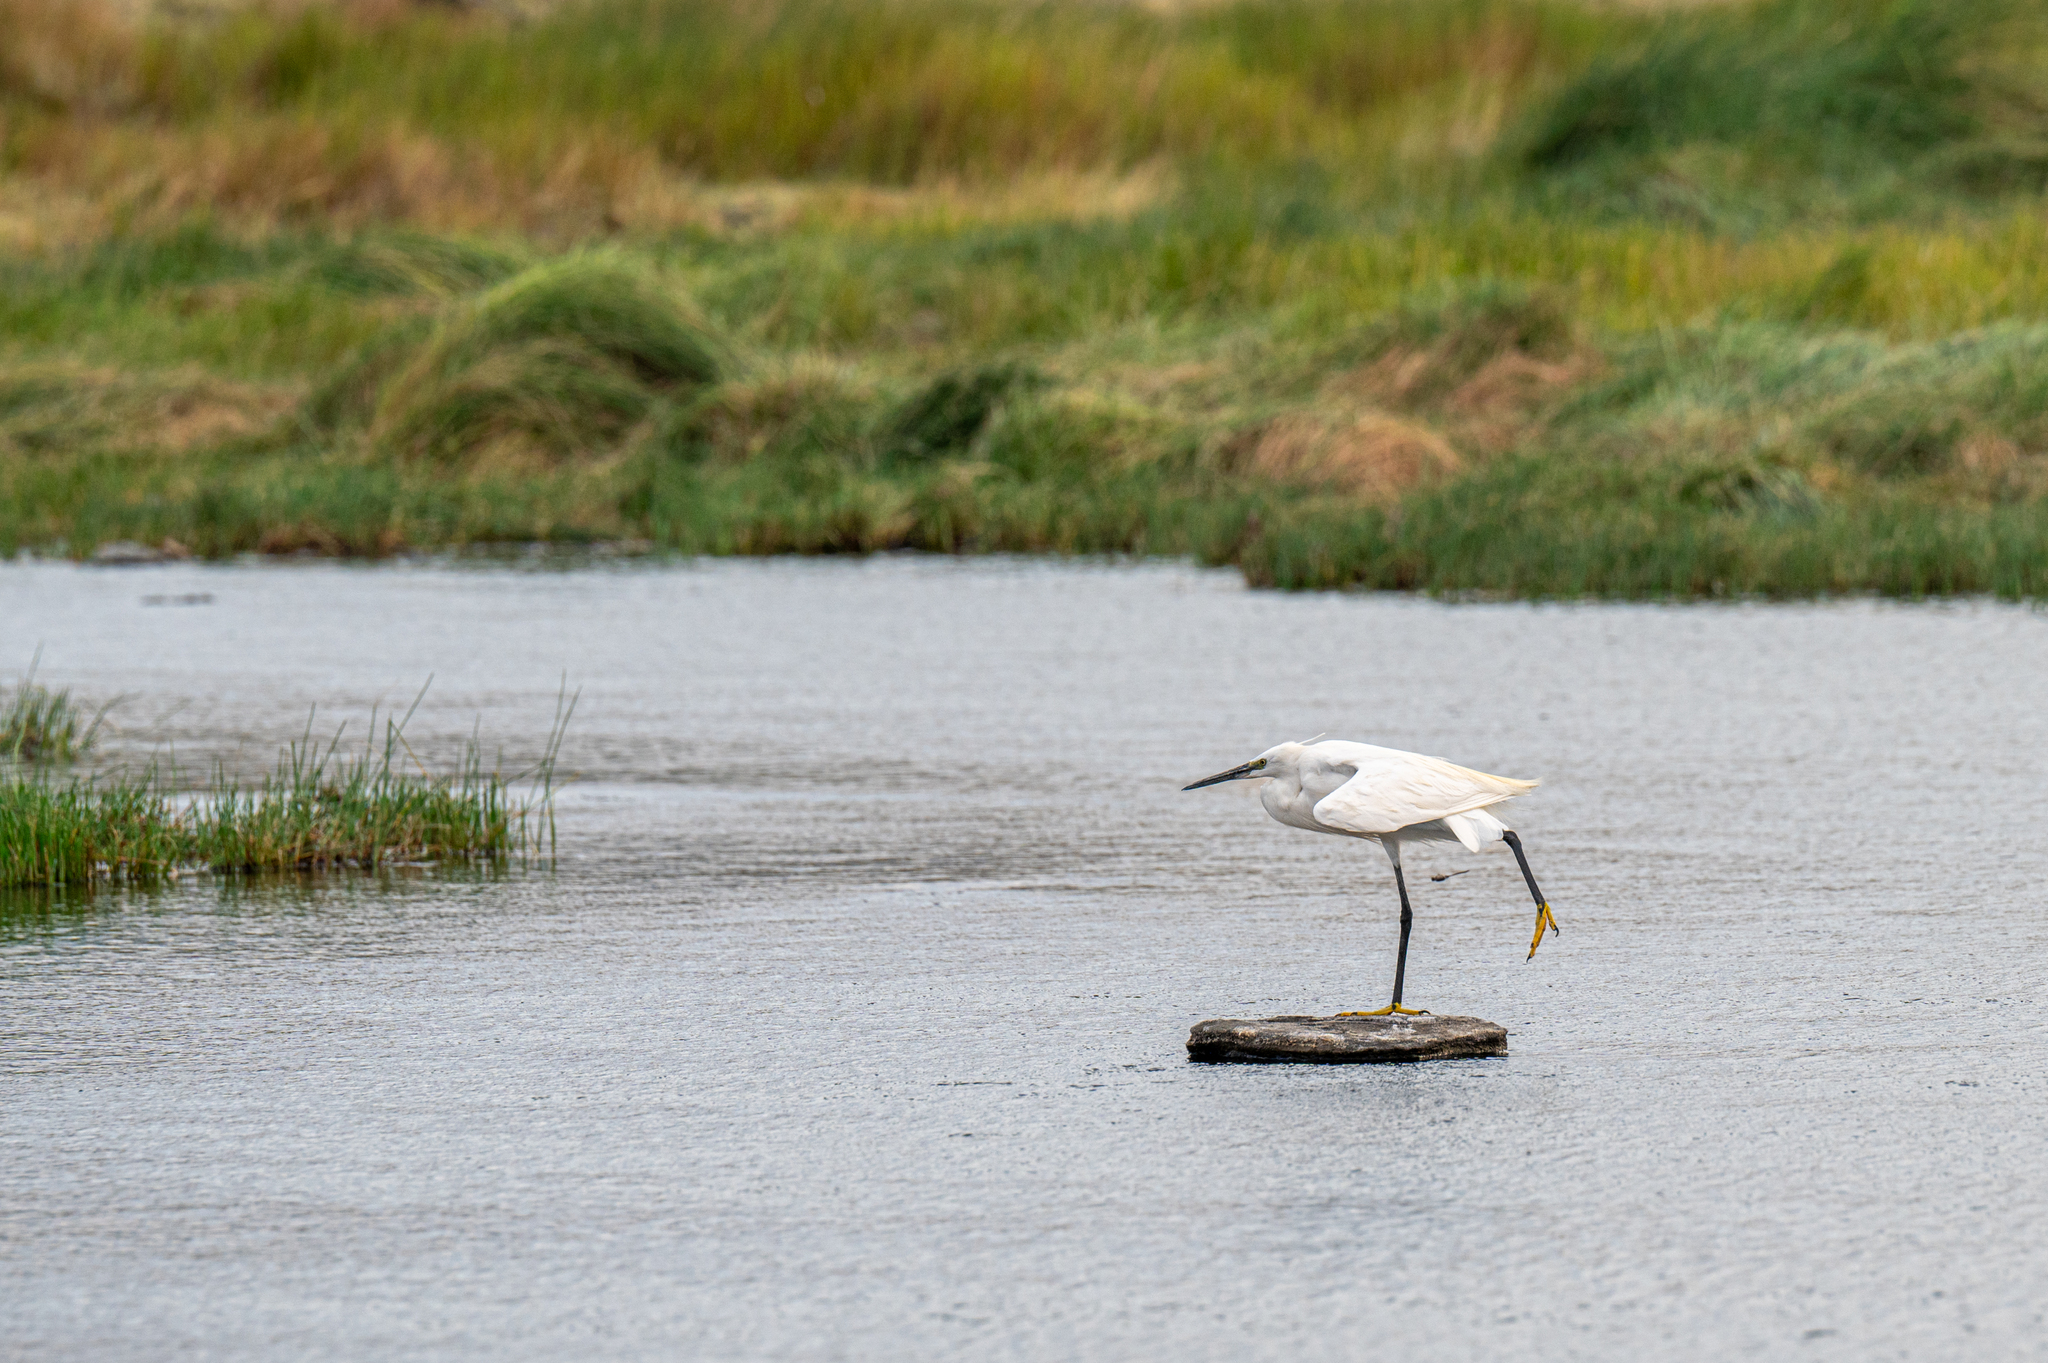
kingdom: Animalia
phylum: Chordata
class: Aves
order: Pelecaniformes
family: Ardeidae
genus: Egretta
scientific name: Egretta garzetta
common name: Little egret
